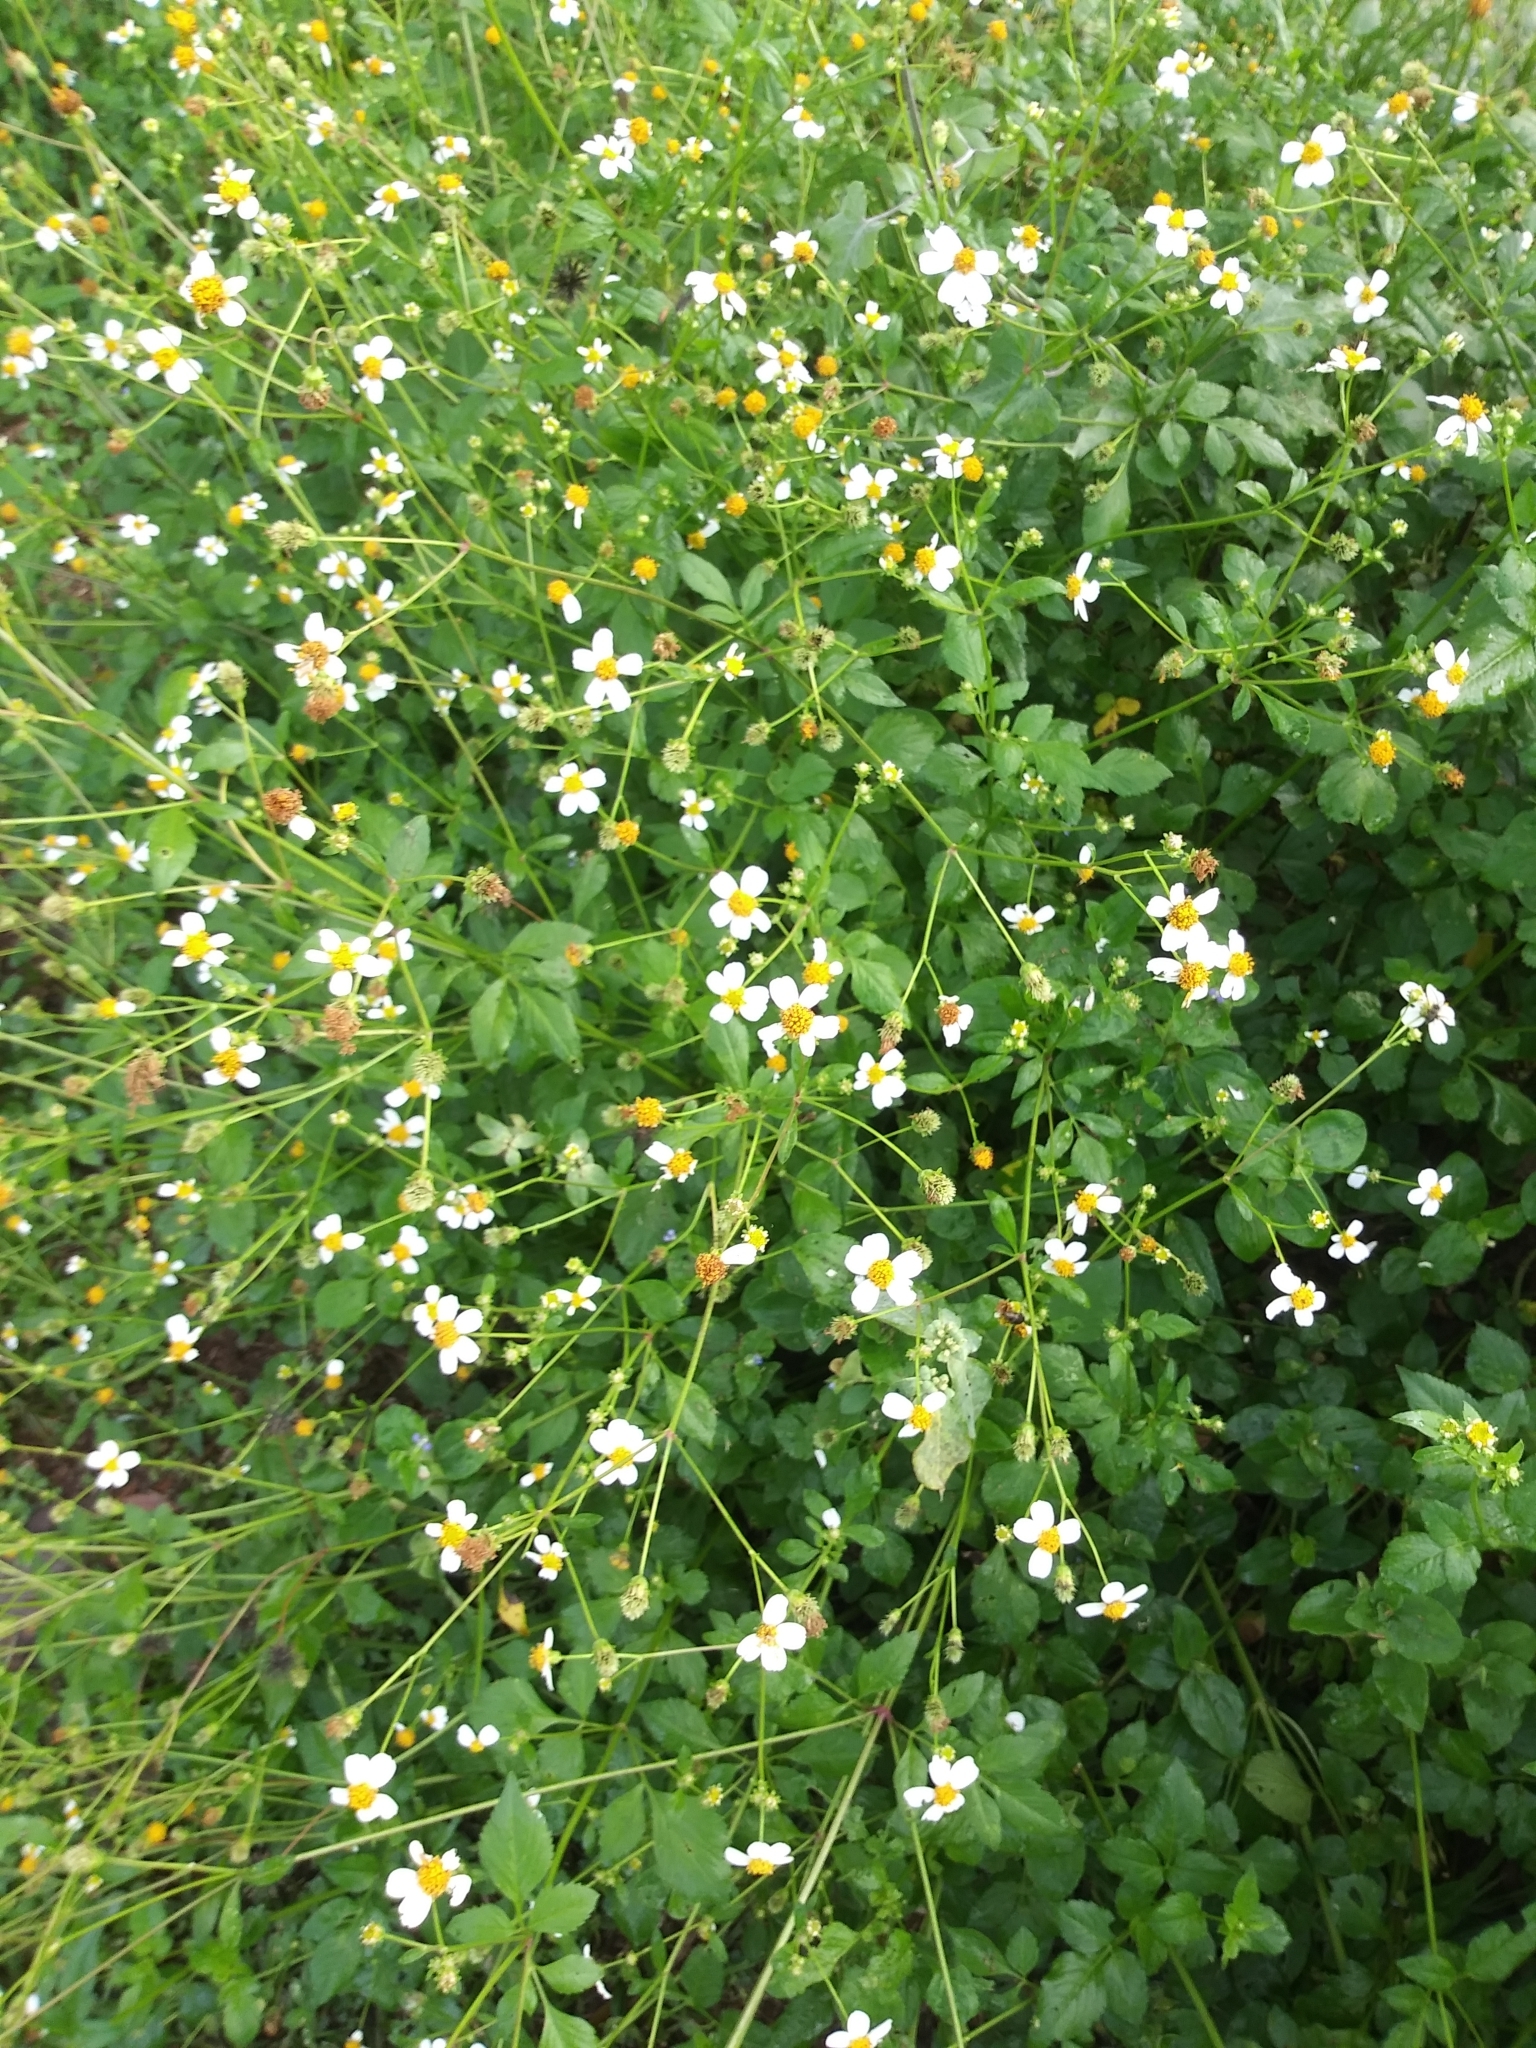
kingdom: Plantae
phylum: Tracheophyta
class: Magnoliopsida
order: Asterales
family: Asteraceae
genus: Bidens
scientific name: Bidens alba
